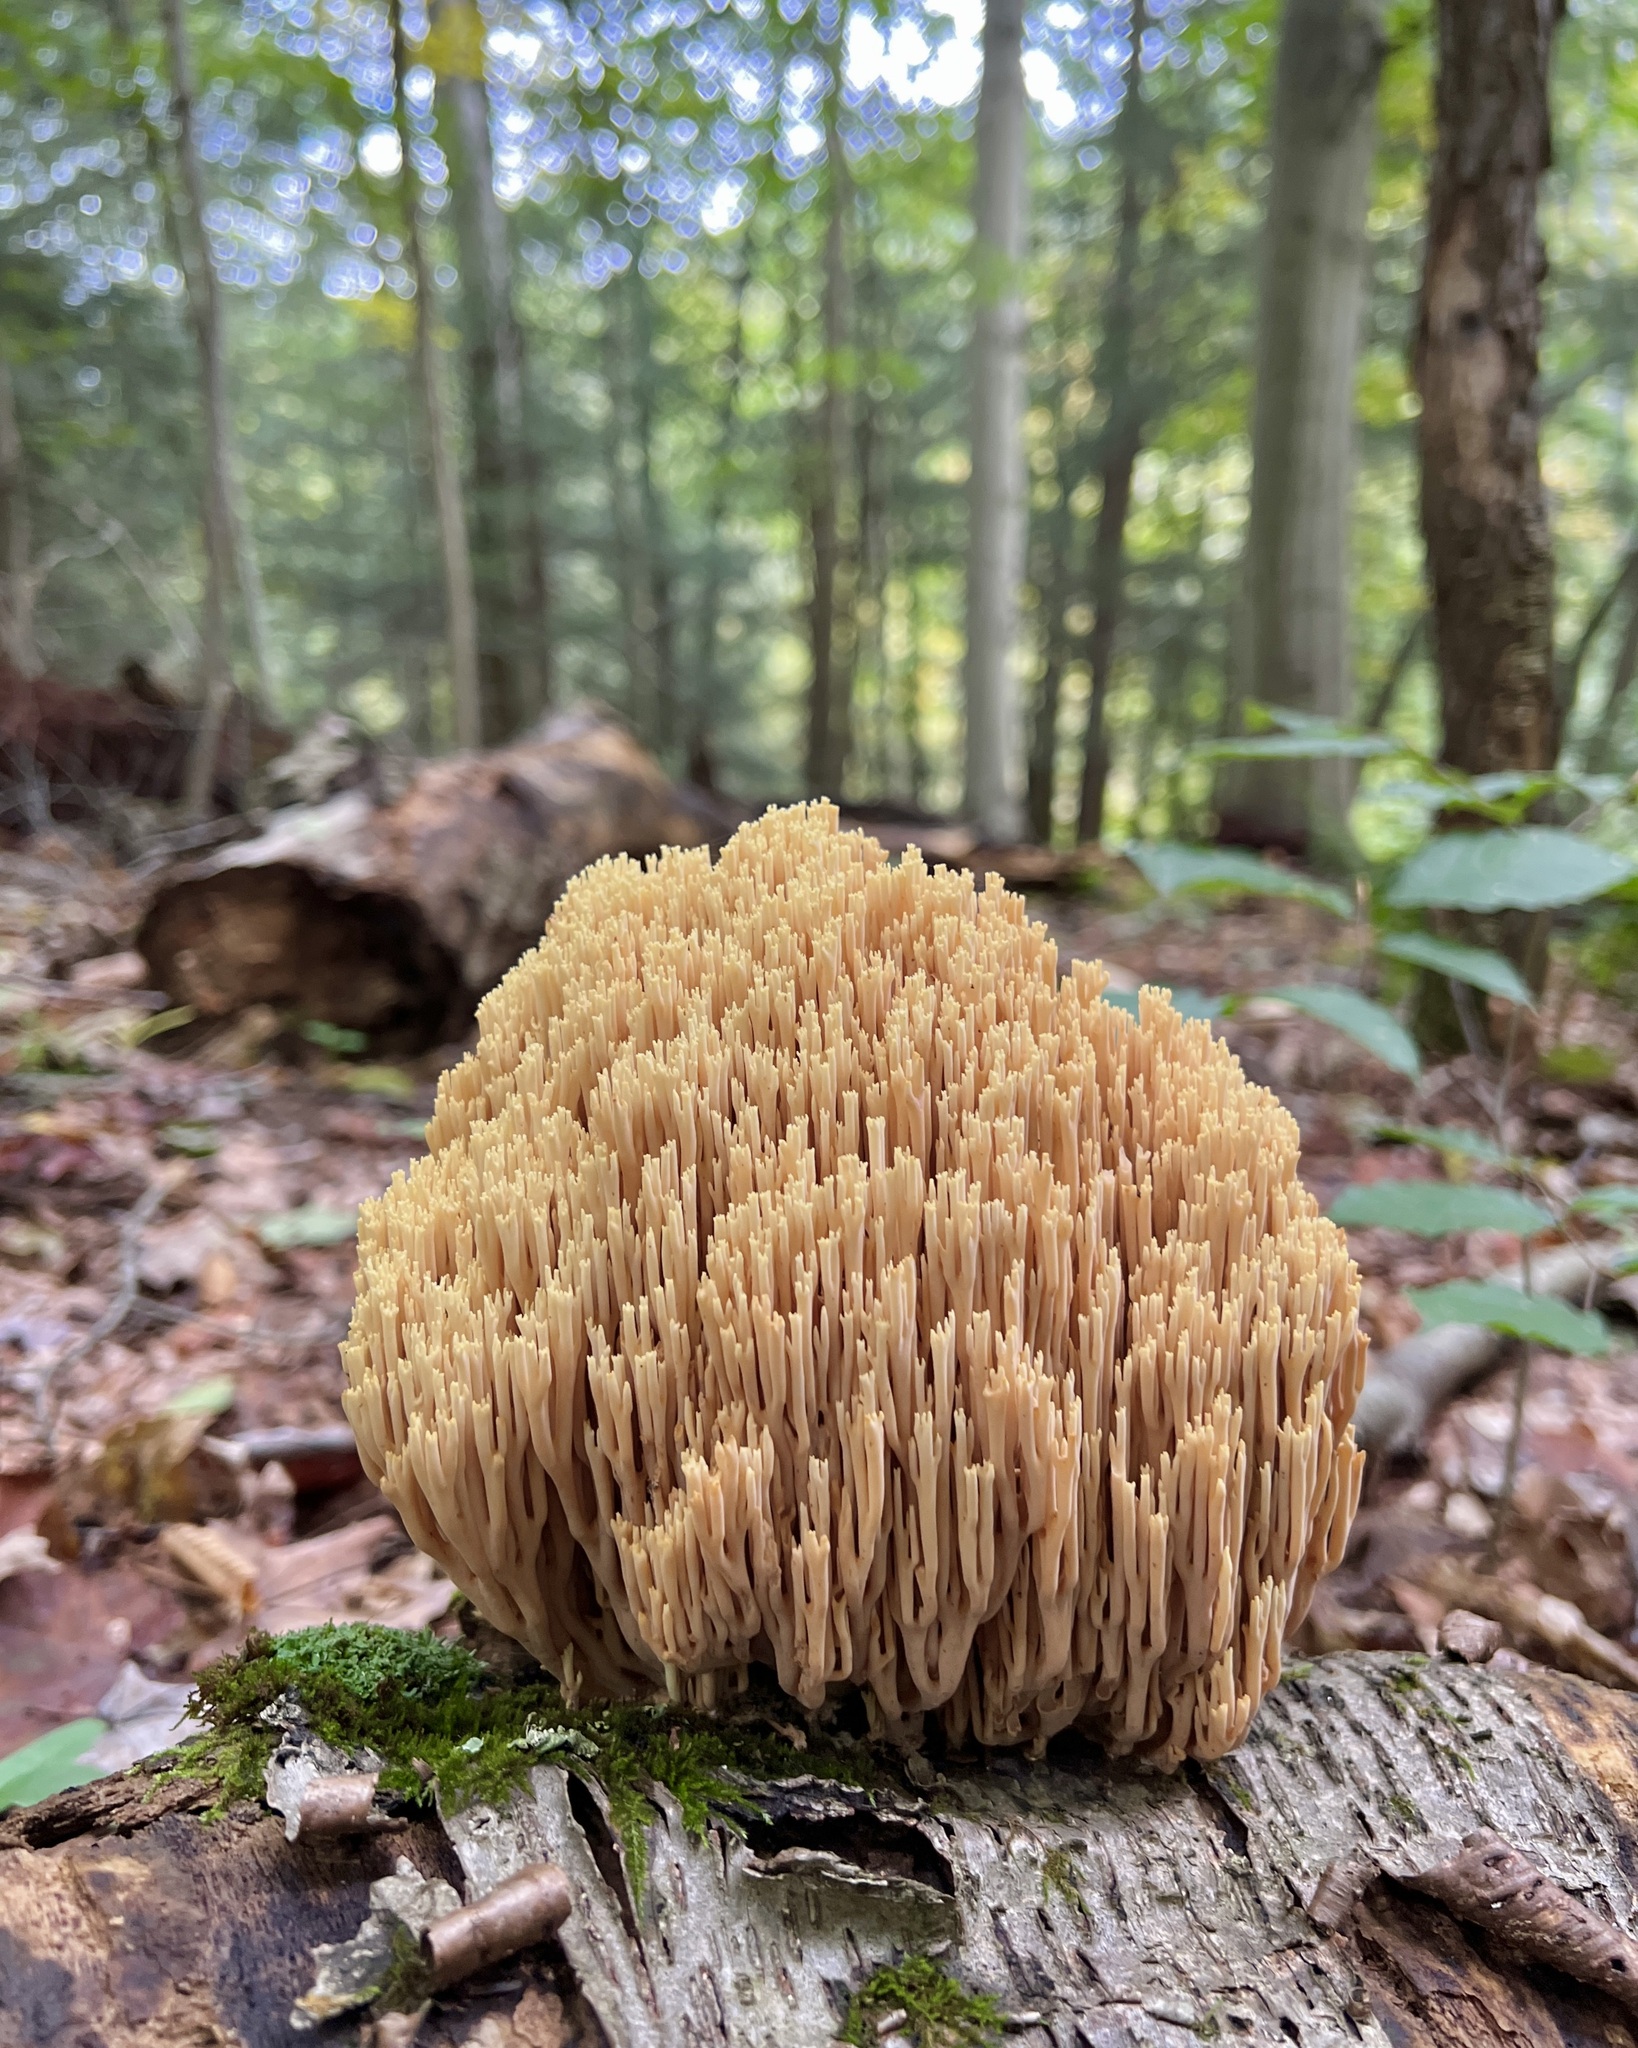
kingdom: Fungi
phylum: Basidiomycota
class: Agaricomycetes
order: Gomphales
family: Gomphaceae
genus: Ramaria
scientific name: Ramaria stricta
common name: Upright coral
